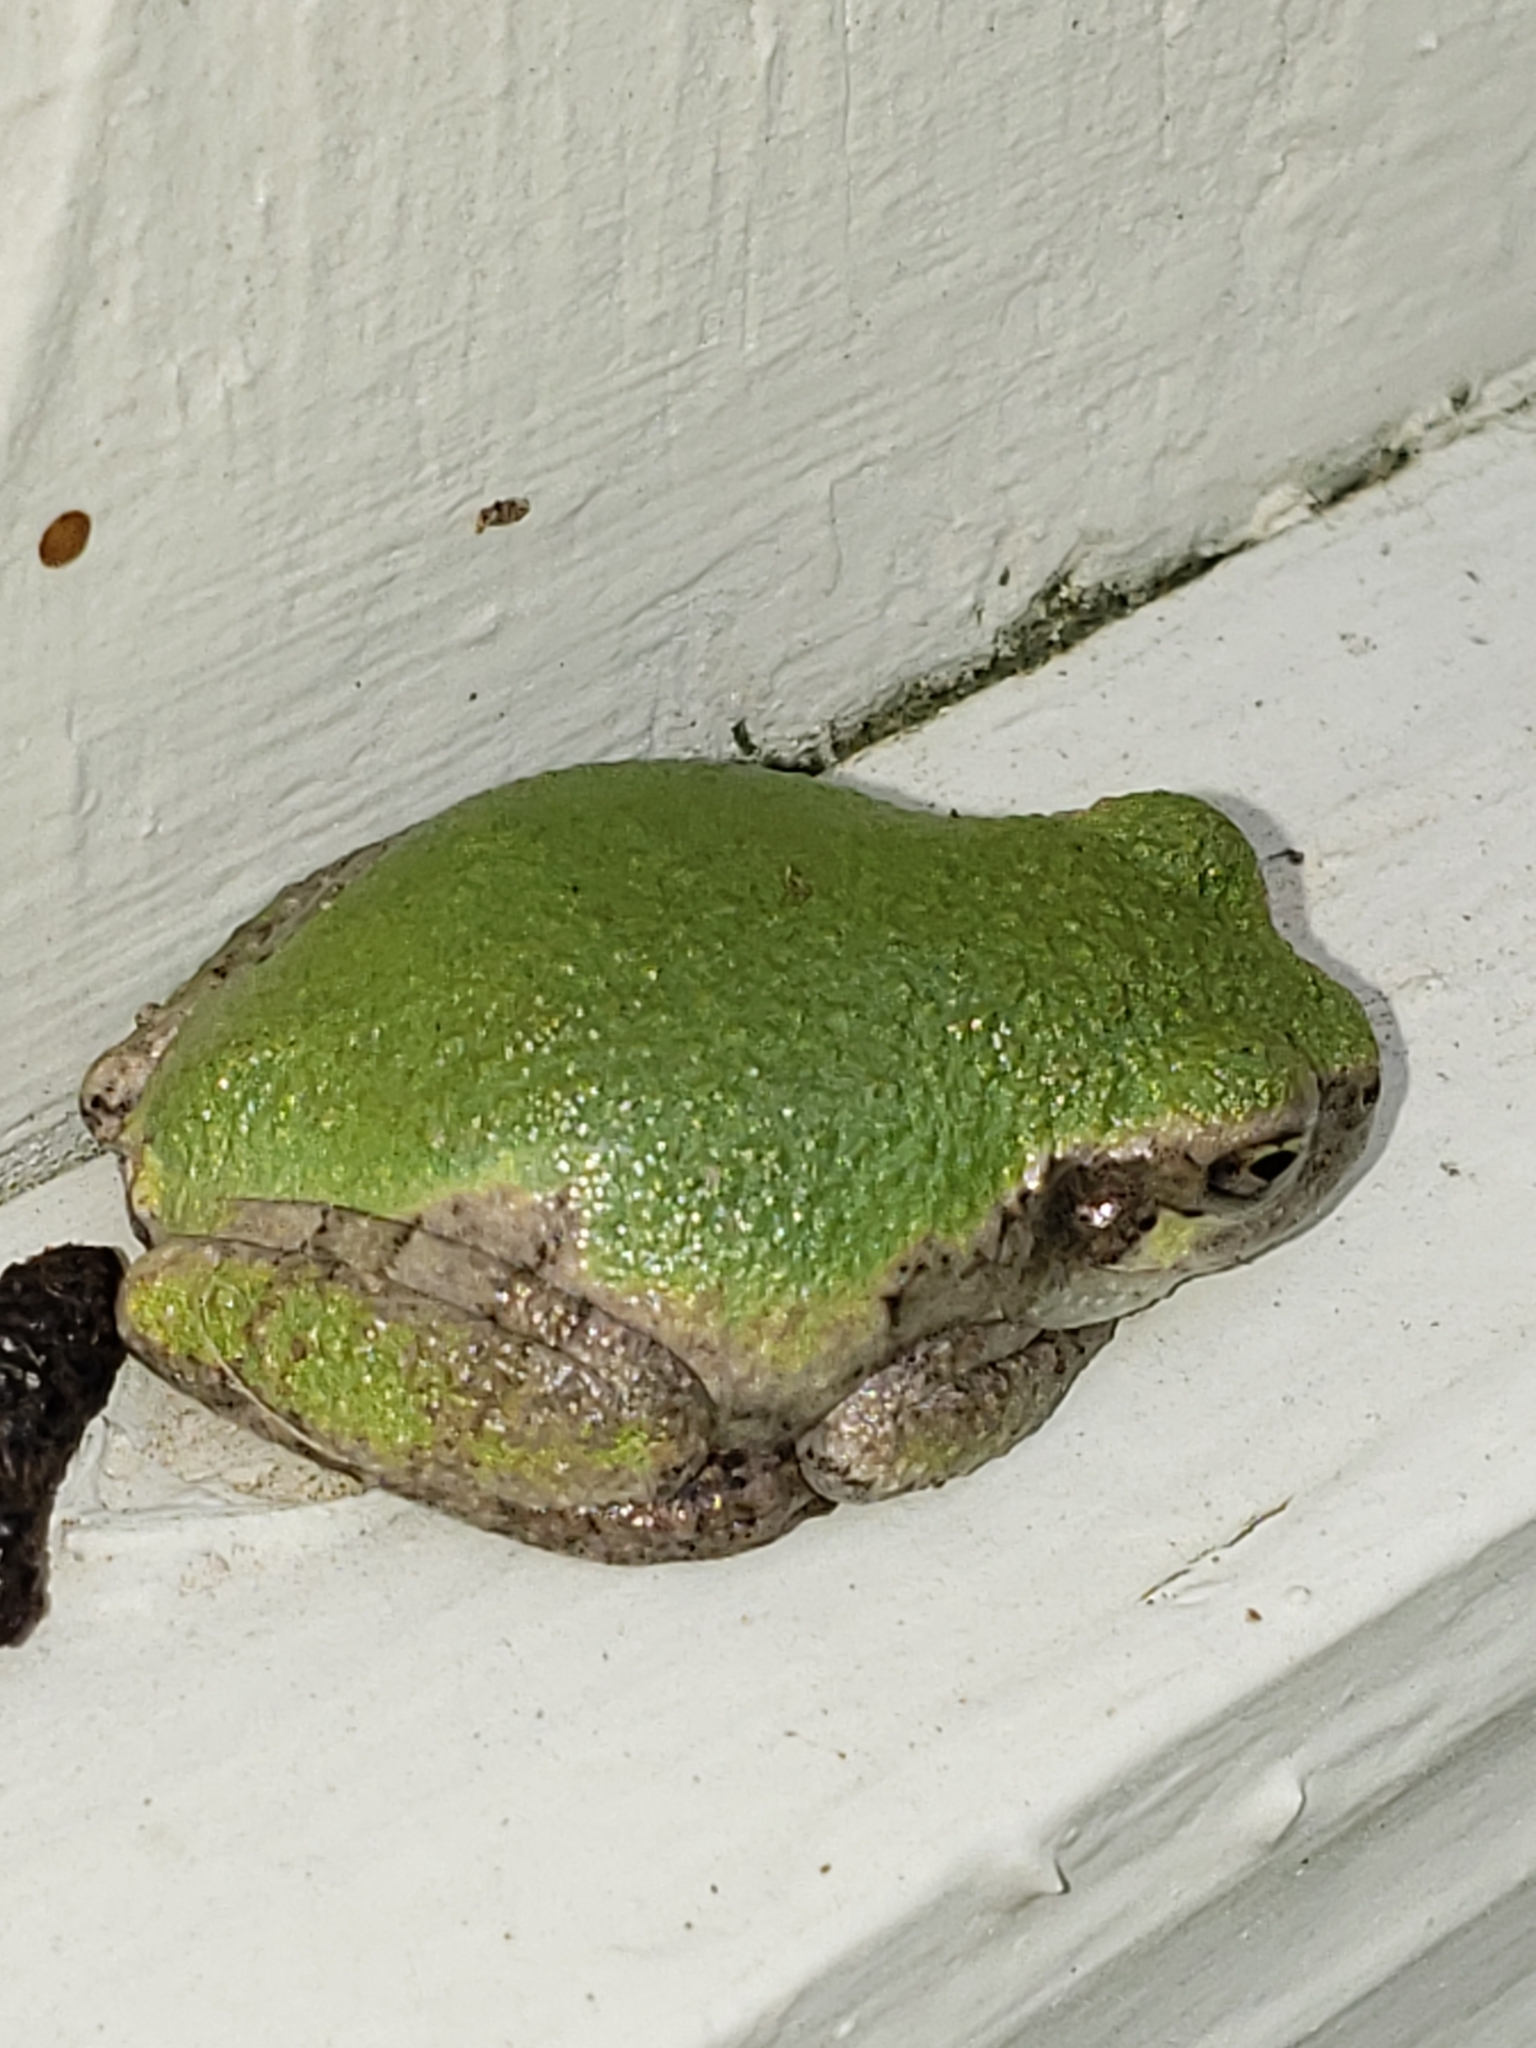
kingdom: Animalia
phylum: Chordata
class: Amphibia
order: Anura
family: Hylidae
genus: Hyla
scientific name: Hyla
